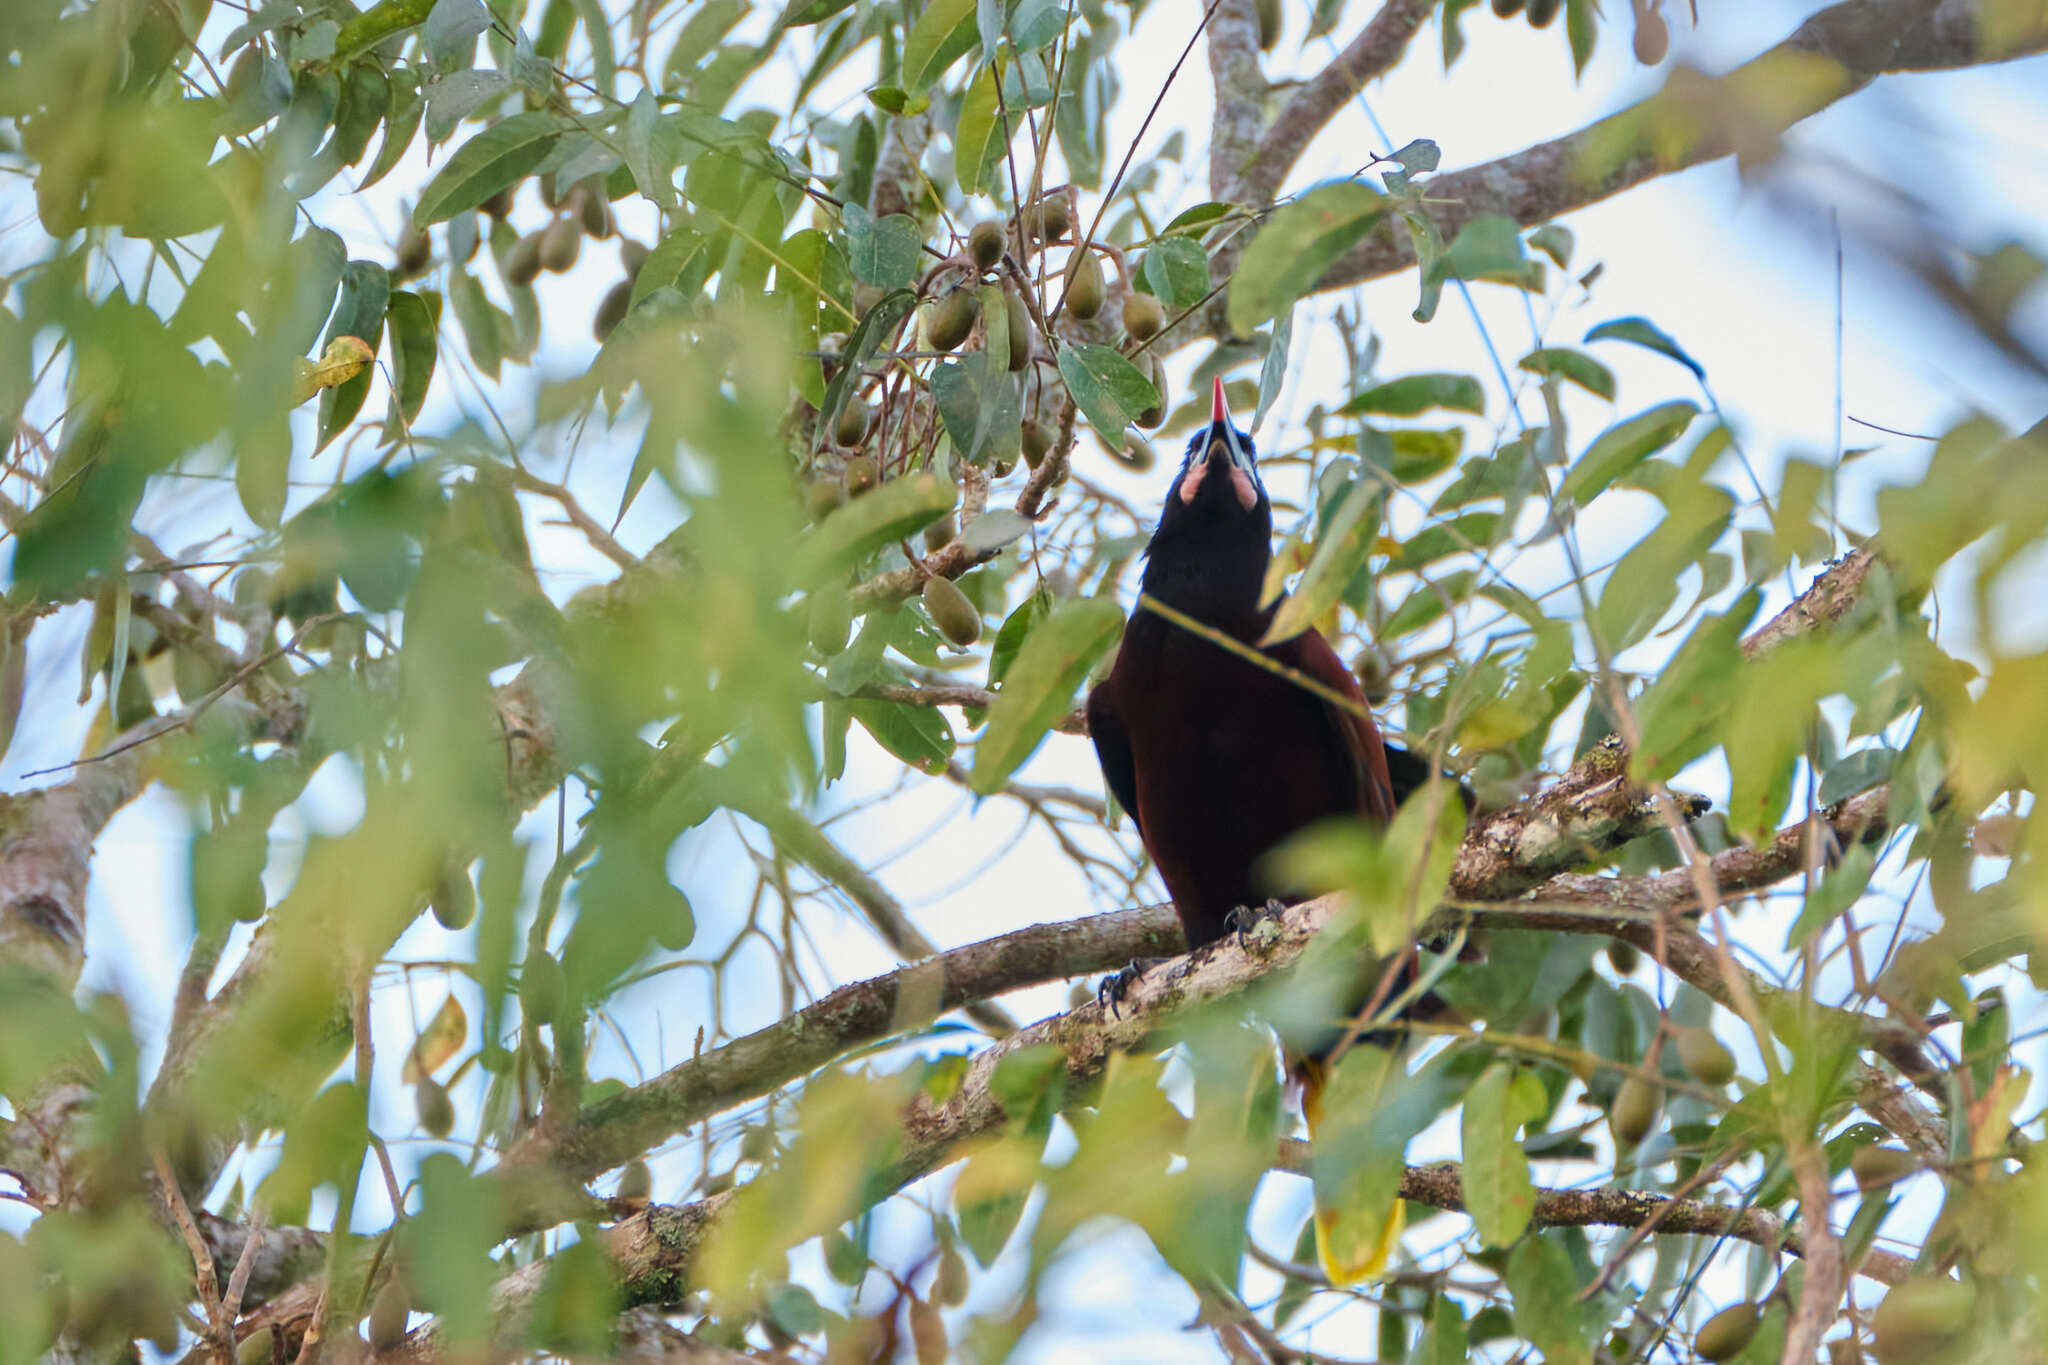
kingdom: Animalia
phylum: Chordata
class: Aves
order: Passeriformes
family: Icteridae
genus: Psarocolius
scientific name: Psarocolius montezuma
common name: Montezuma oropendola
